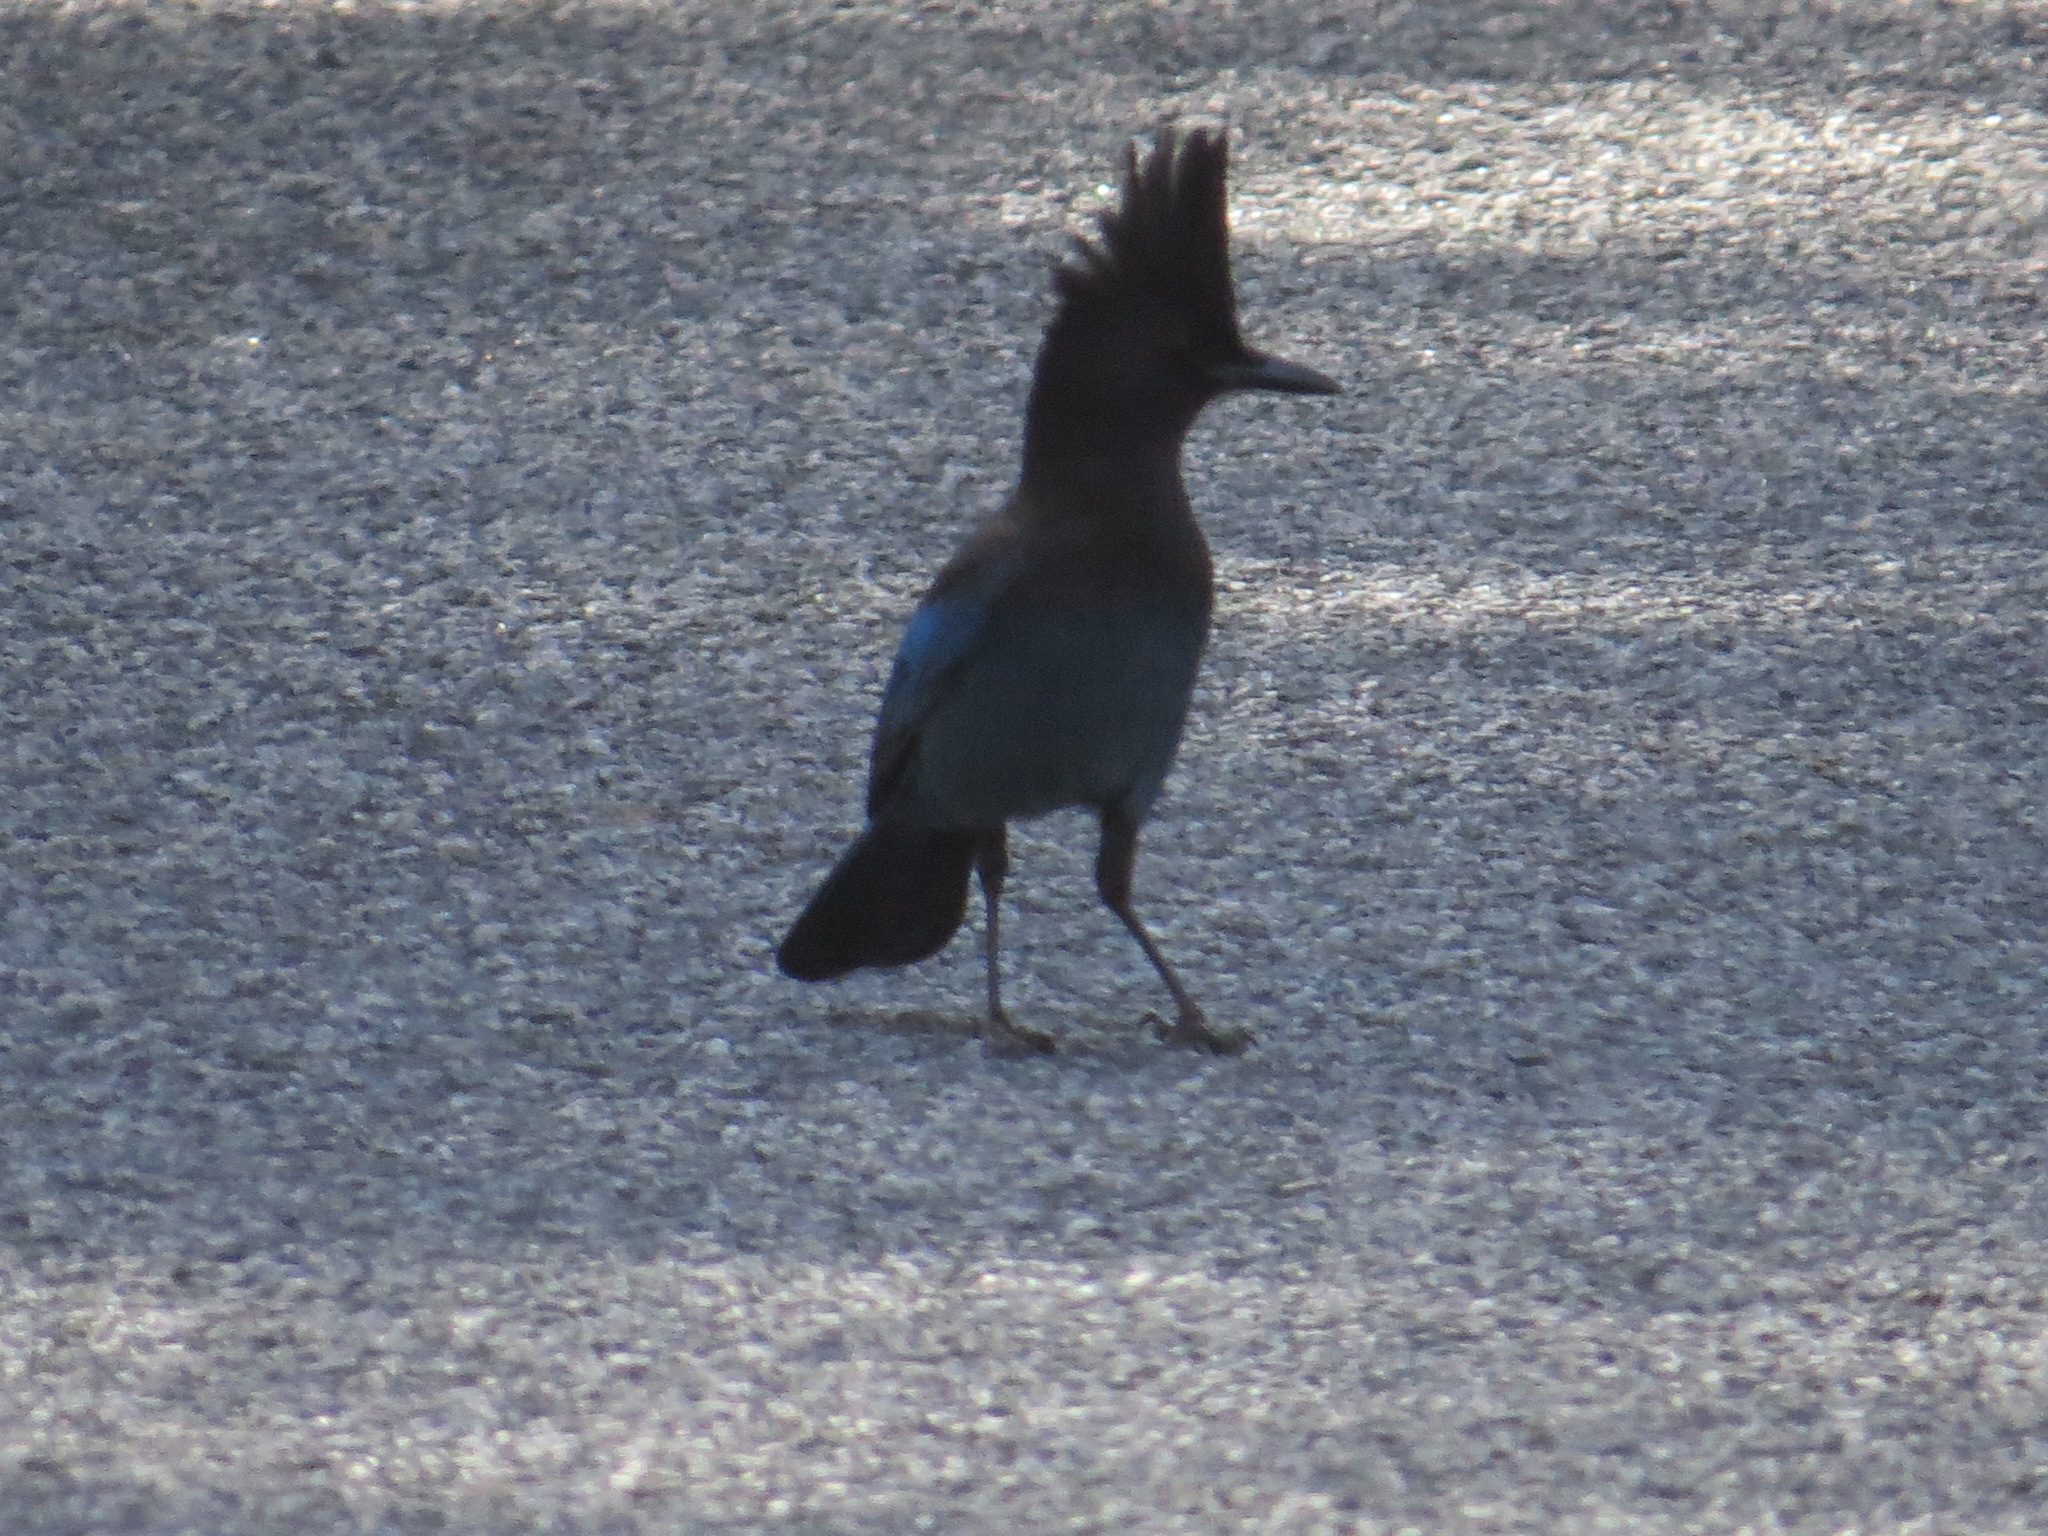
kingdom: Animalia
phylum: Chordata
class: Aves
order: Passeriformes
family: Corvidae
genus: Cyanocitta
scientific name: Cyanocitta stelleri
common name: Steller's jay
